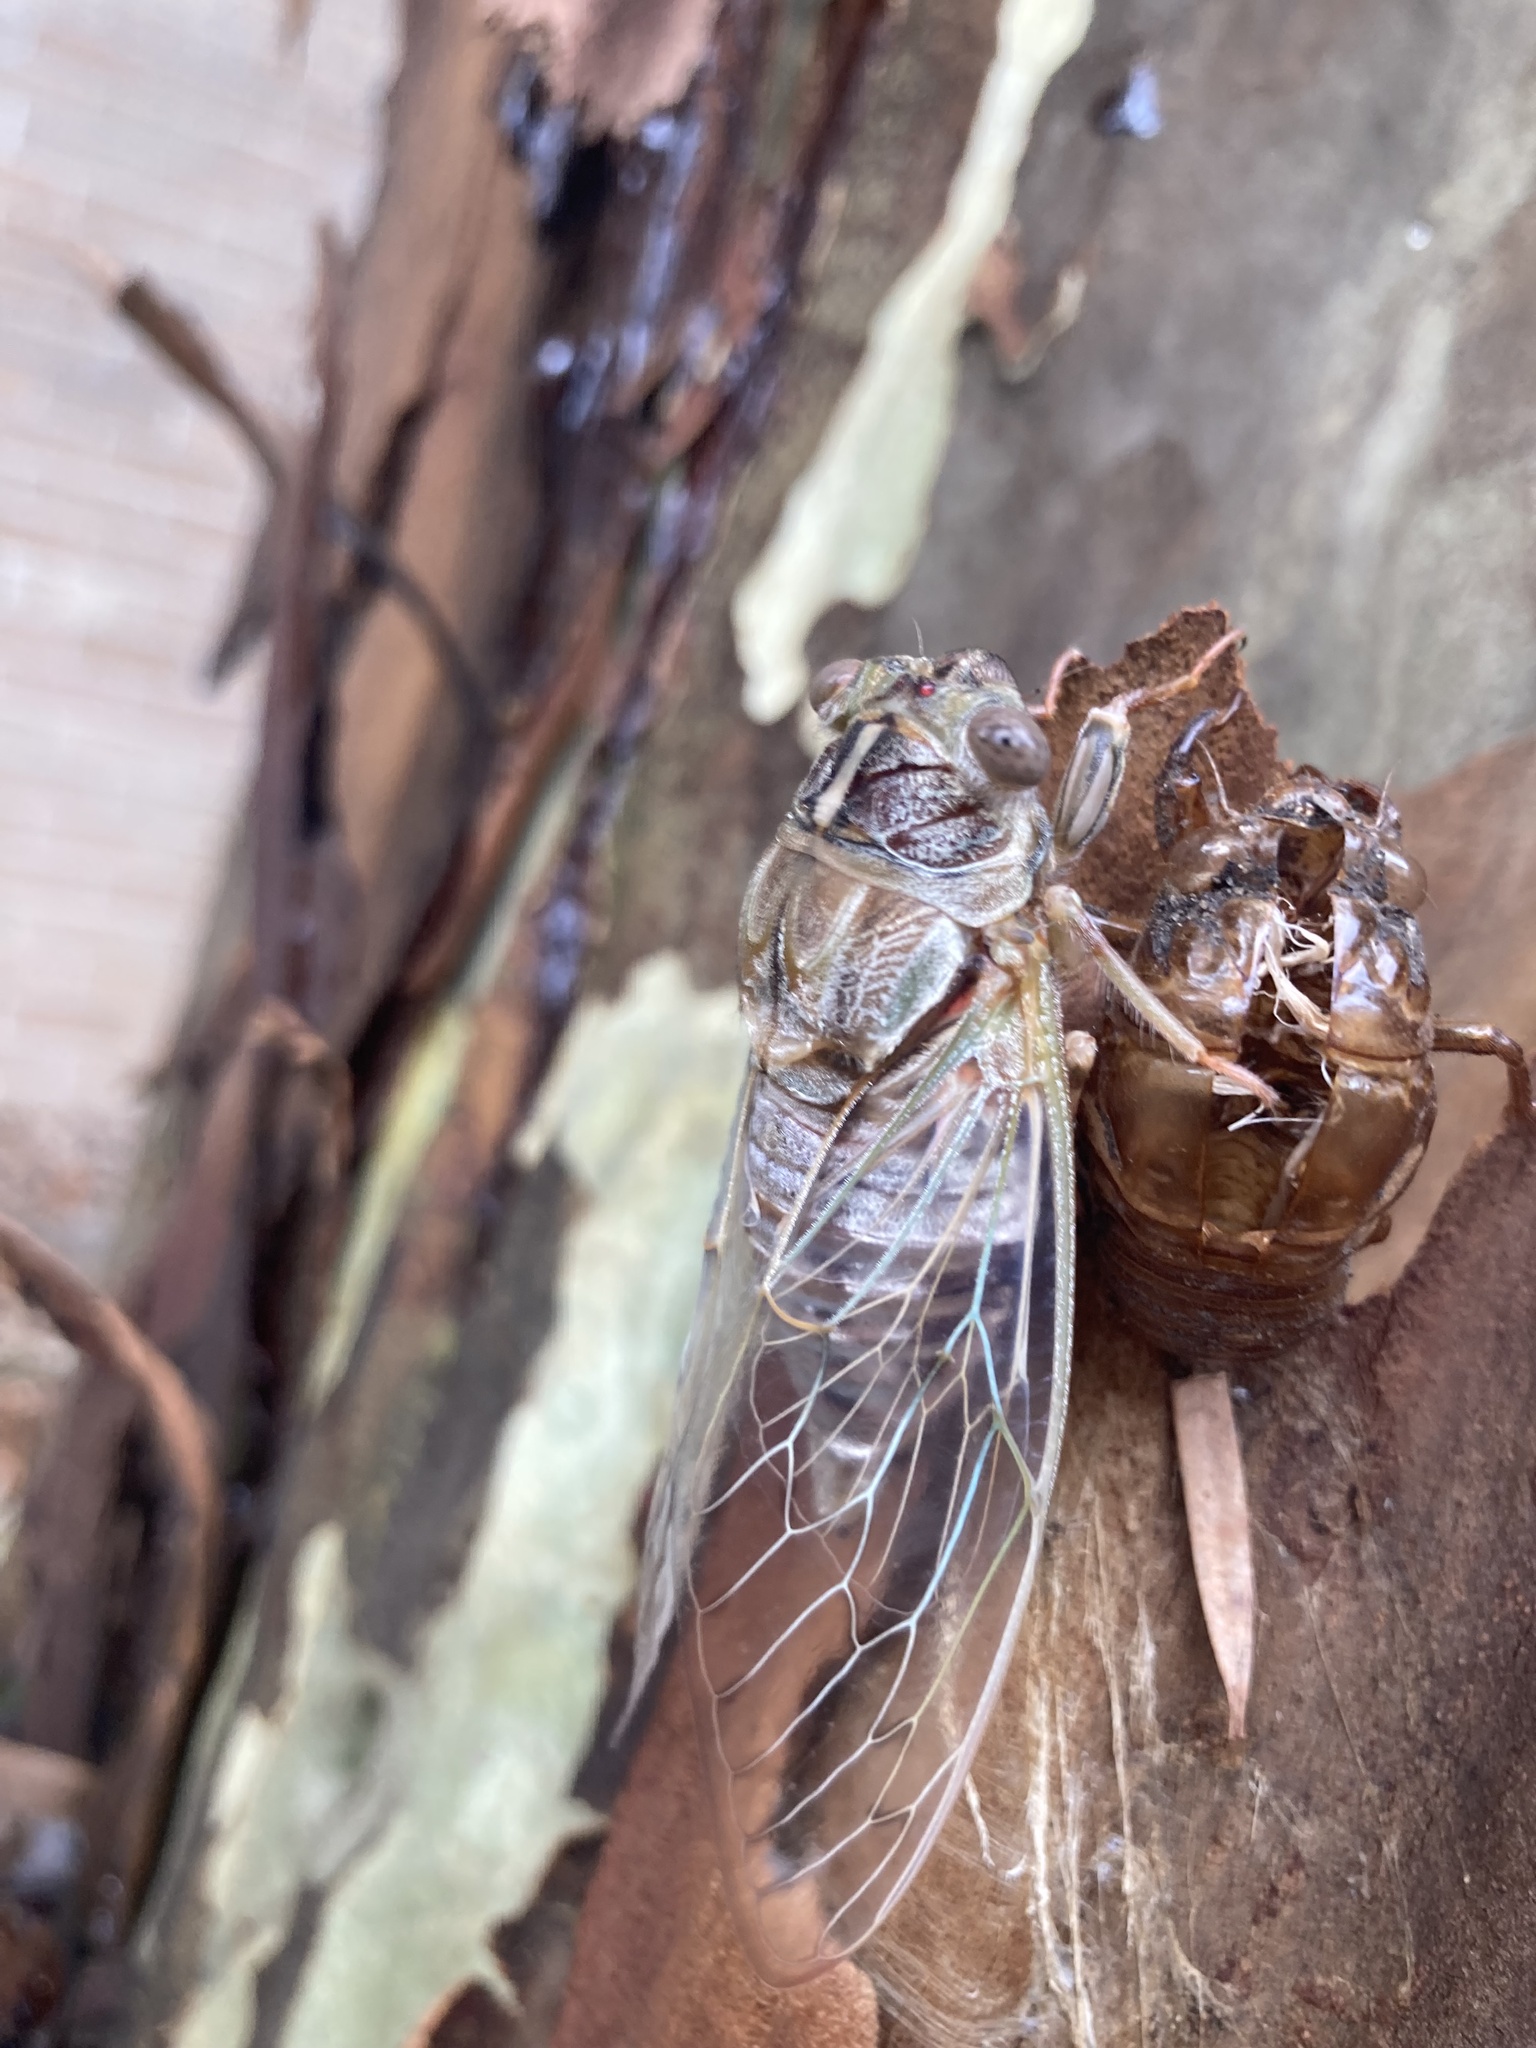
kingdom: Animalia
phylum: Arthropoda
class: Insecta
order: Hemiptera
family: Cicadidae
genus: Henicopsaltria
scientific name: Henicopsaltria eydouxii
